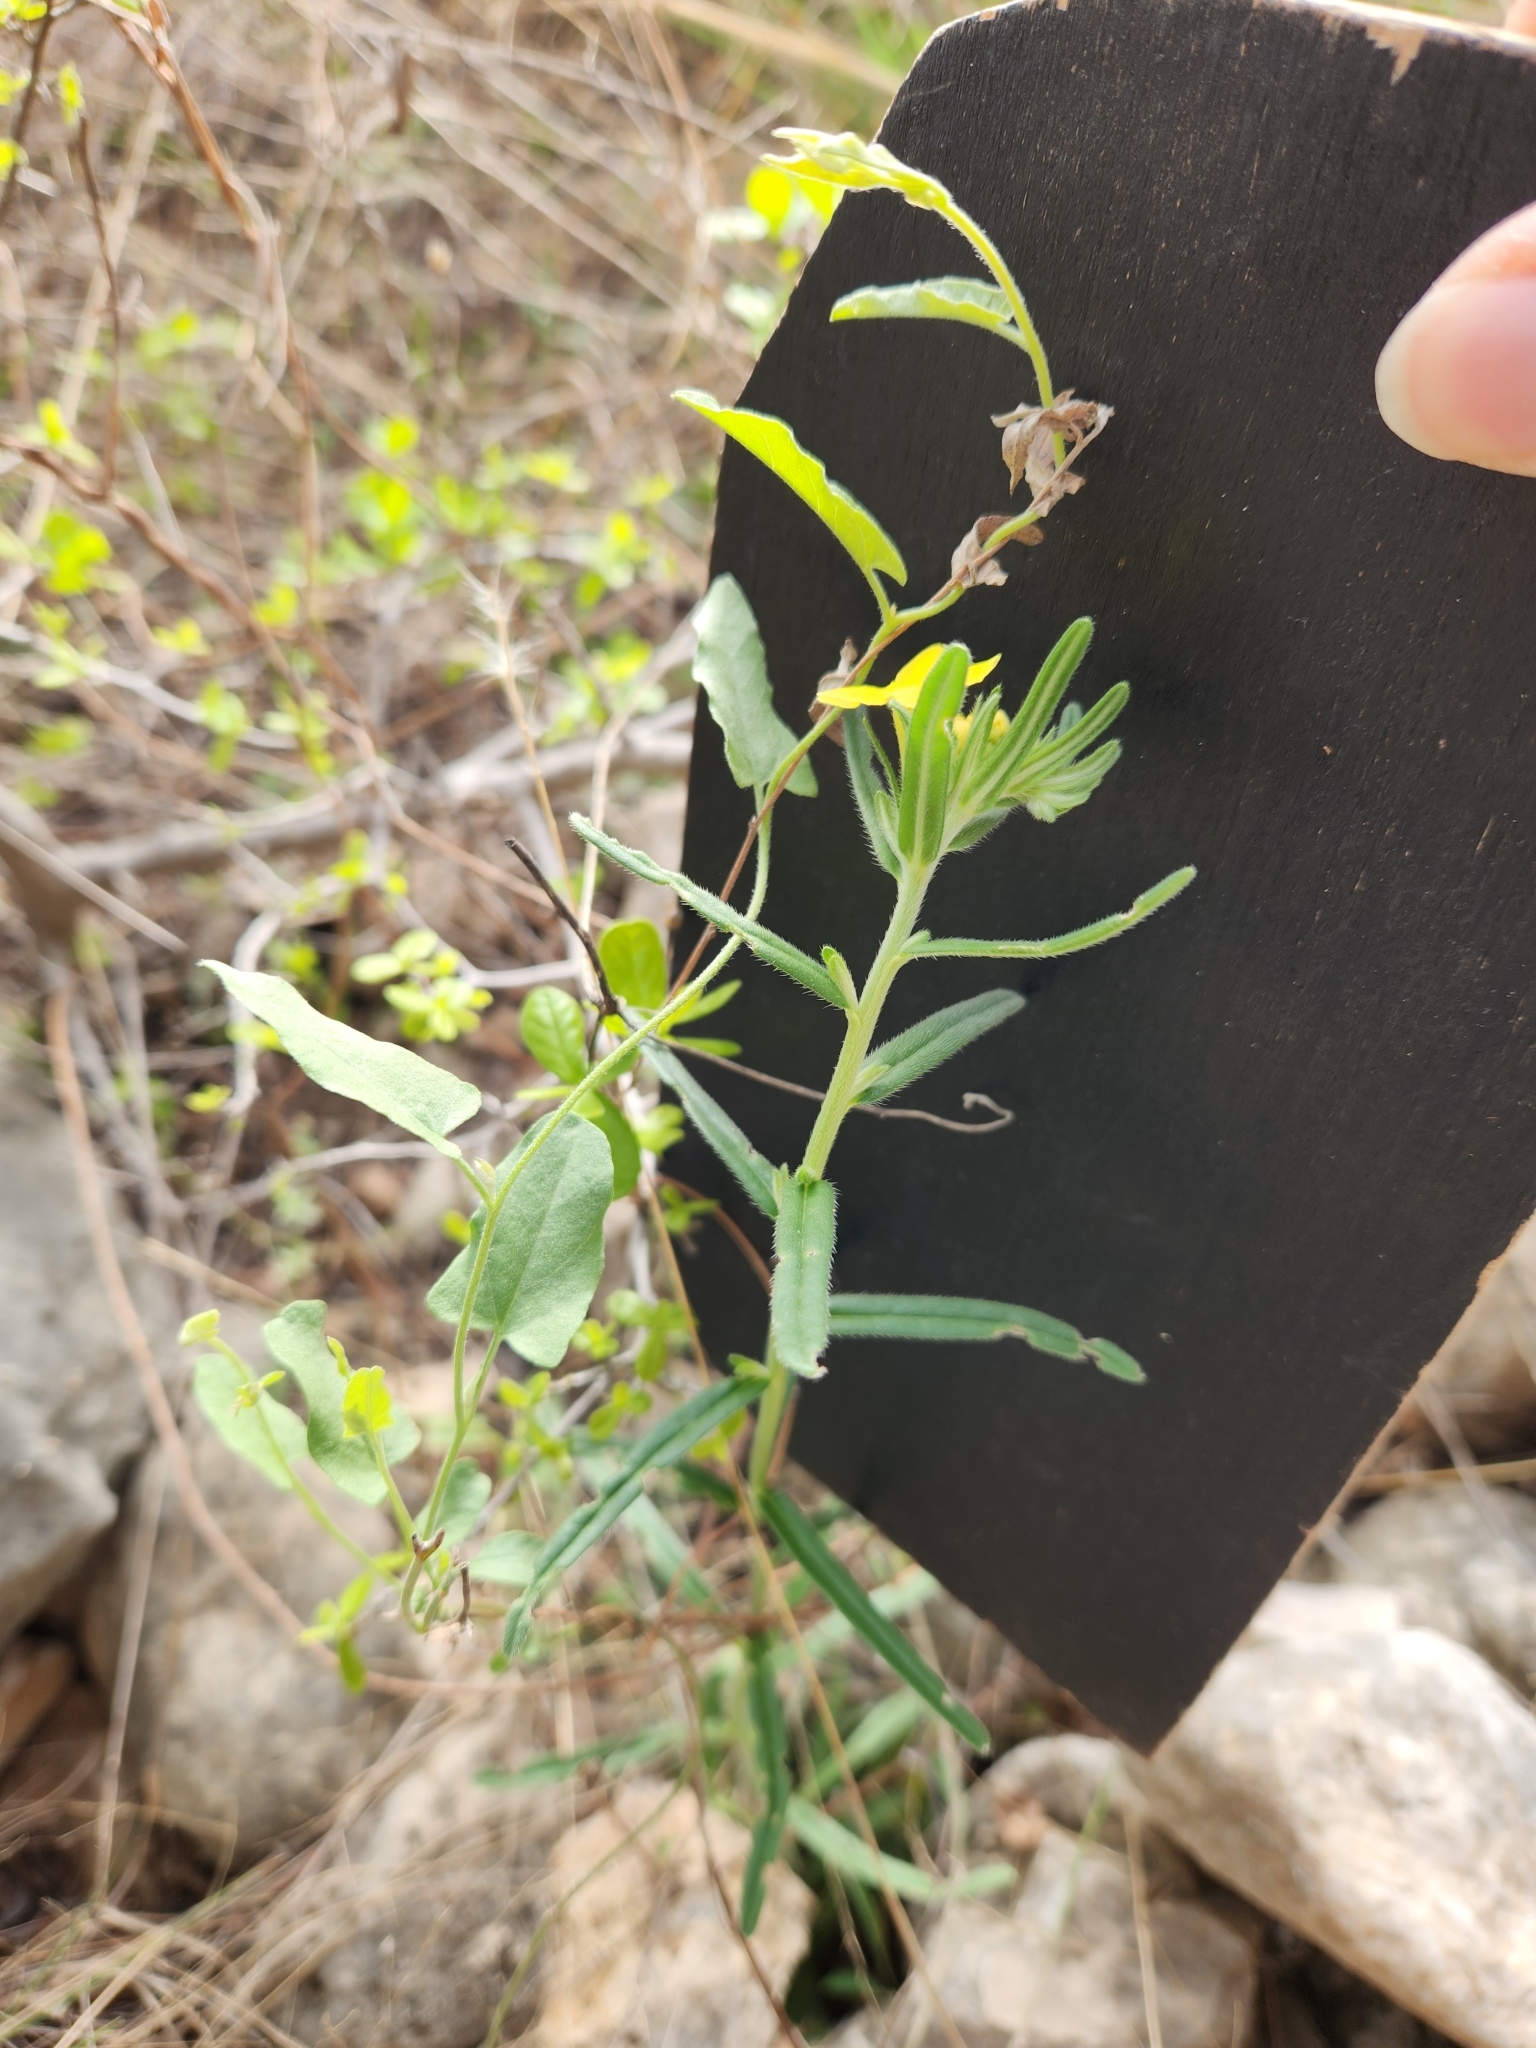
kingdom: Plantae
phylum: Tracheophyta
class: Magnoliopsida
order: Boraginales
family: Boraginaceae
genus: Lithospermum
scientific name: Lithospermum mirabile
